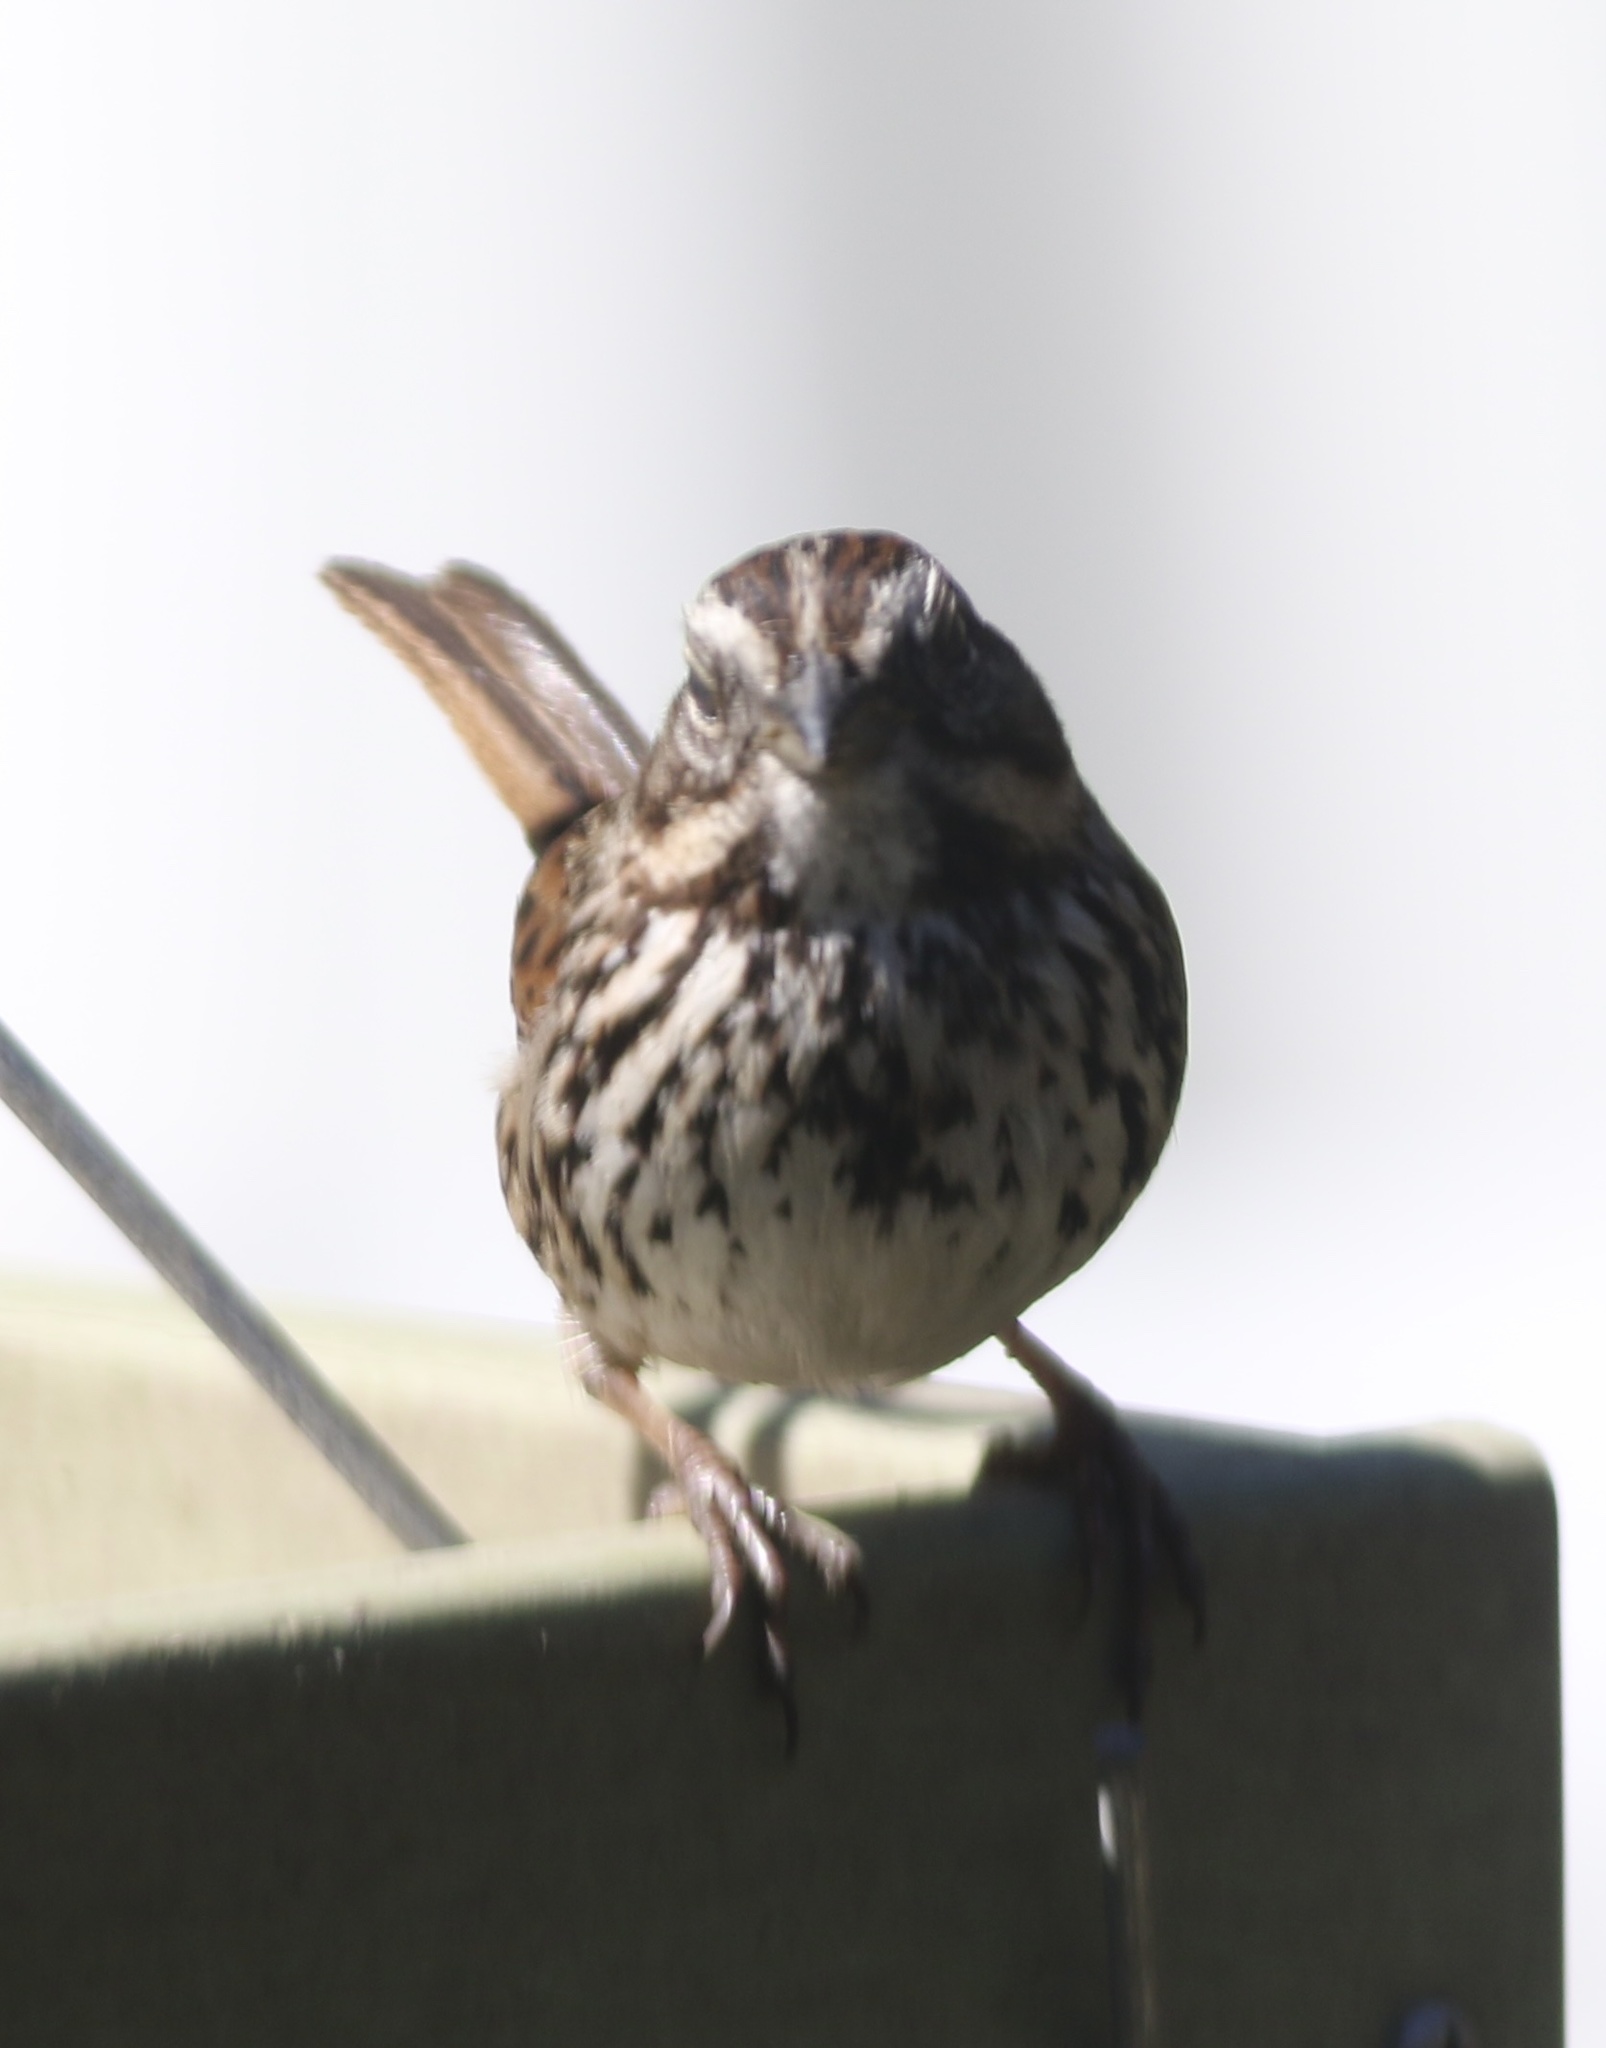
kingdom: Animalia
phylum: Chordata
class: Aves
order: Passeriformes
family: Passerellidae
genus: Melospiza
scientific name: Melospiza melodia
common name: Song sparrow
